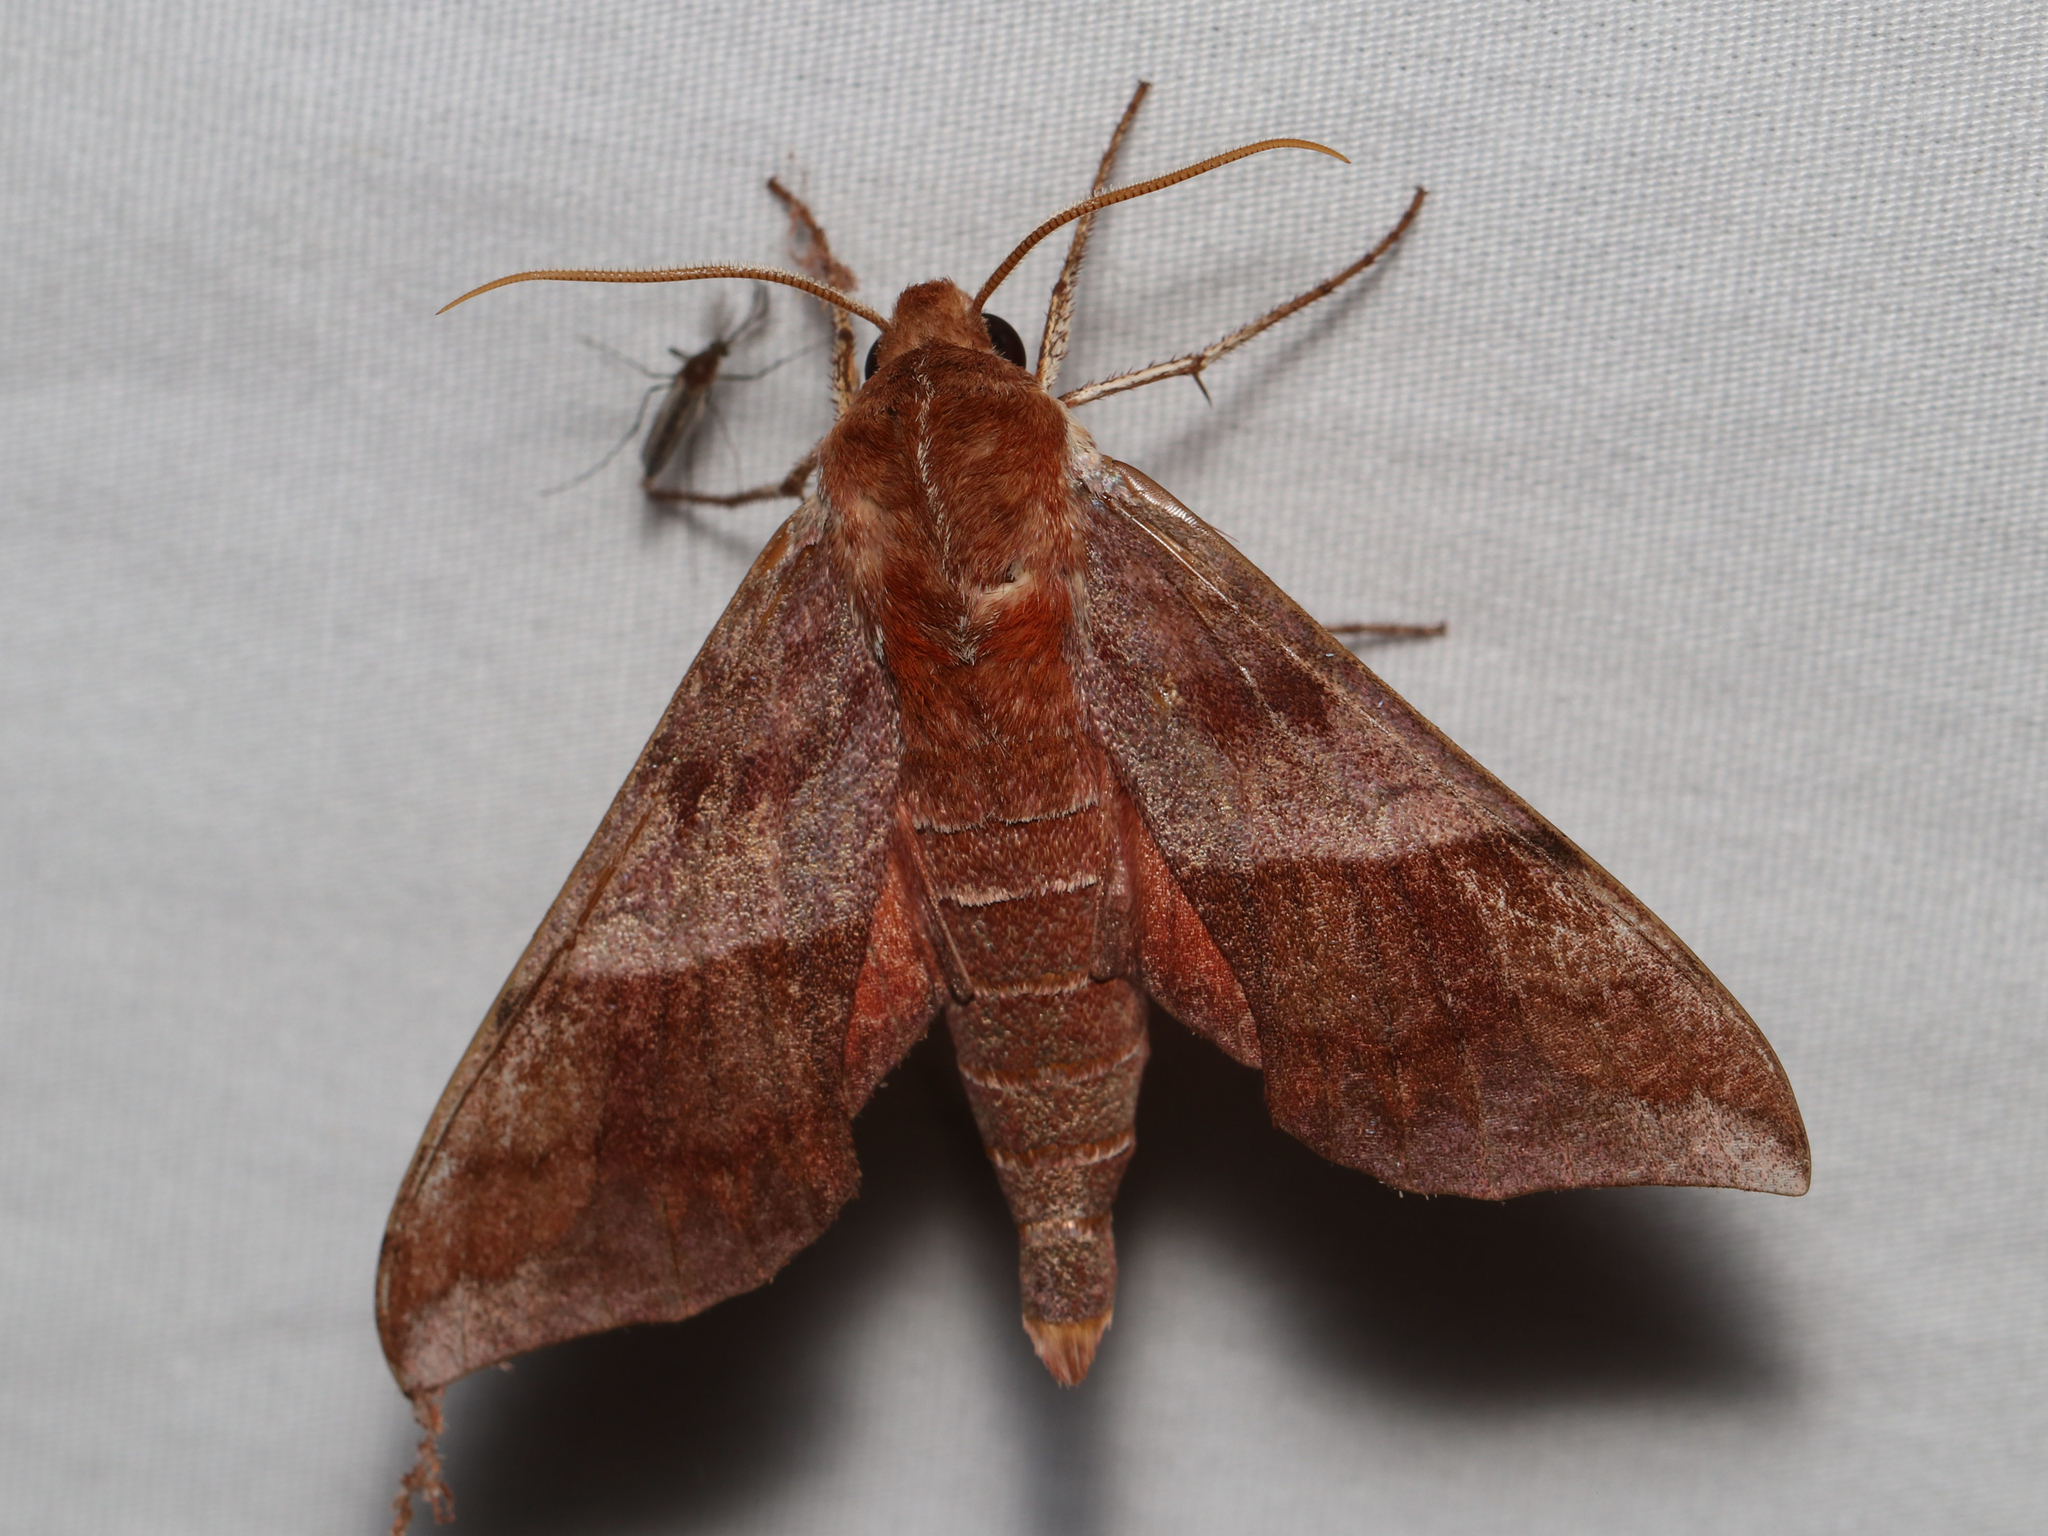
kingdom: Animalia
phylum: Arthropoda
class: Insecta
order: Lepidoptera
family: Sphingidae
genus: Darapsa
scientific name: Darapsa choerilus
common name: Azalea sphinx
